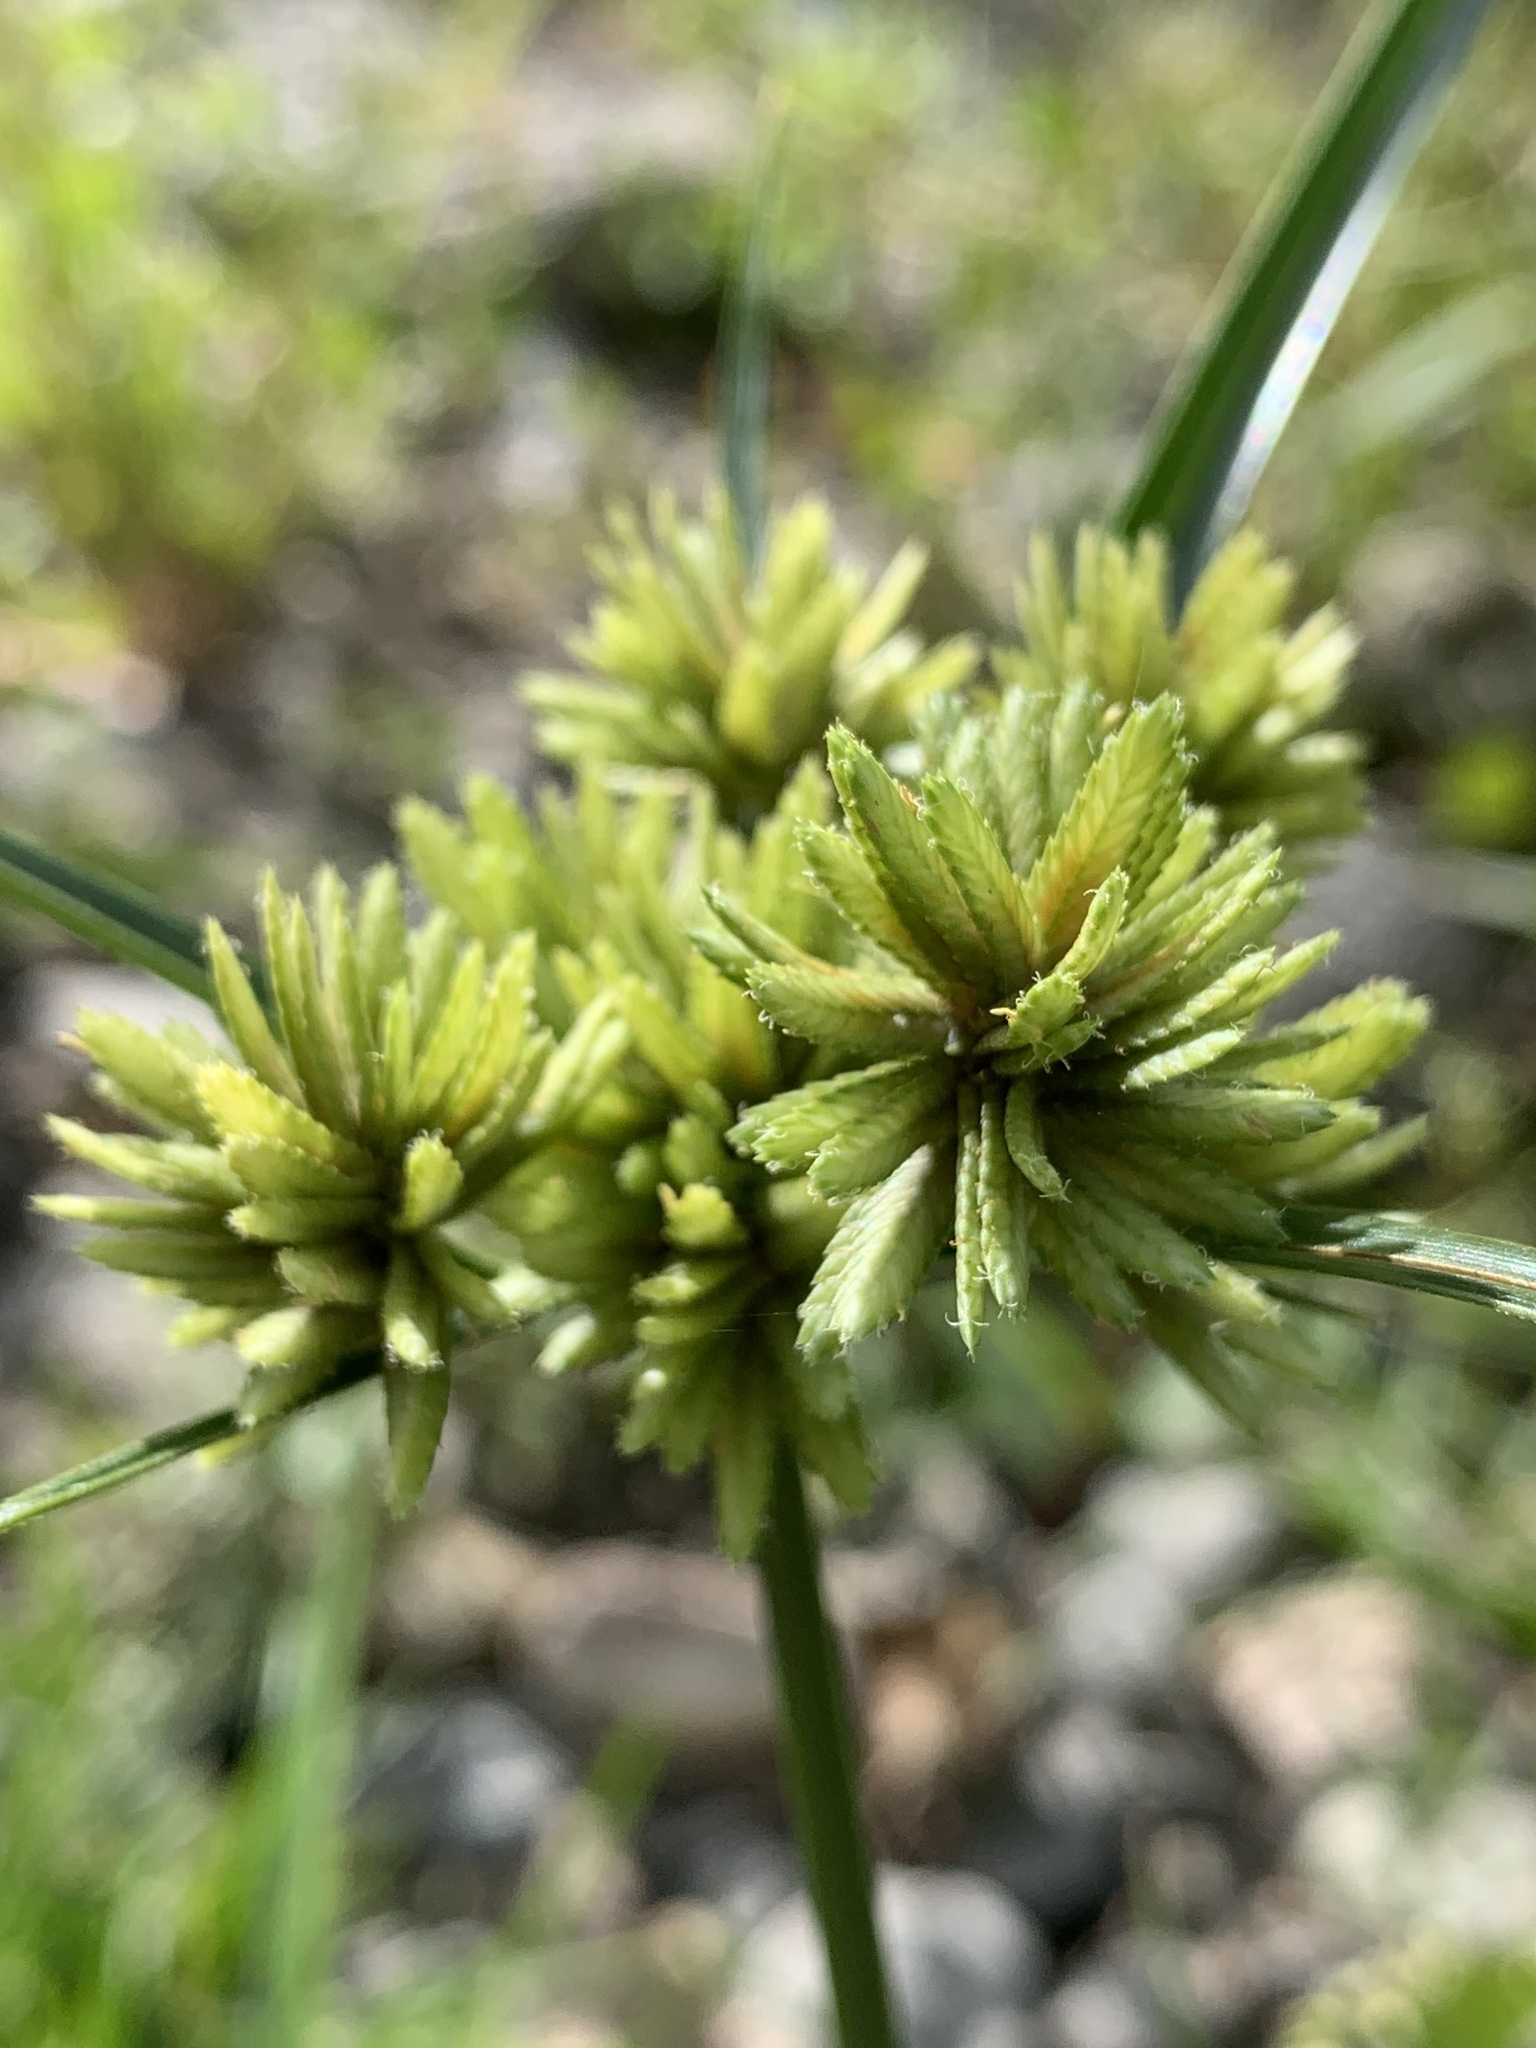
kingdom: Plantae
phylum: Tracheophyta
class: Liliopsida
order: Poales
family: Cyperaceae
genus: Cyperus
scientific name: Cyperus eragrostis
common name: Tall flatsedge
